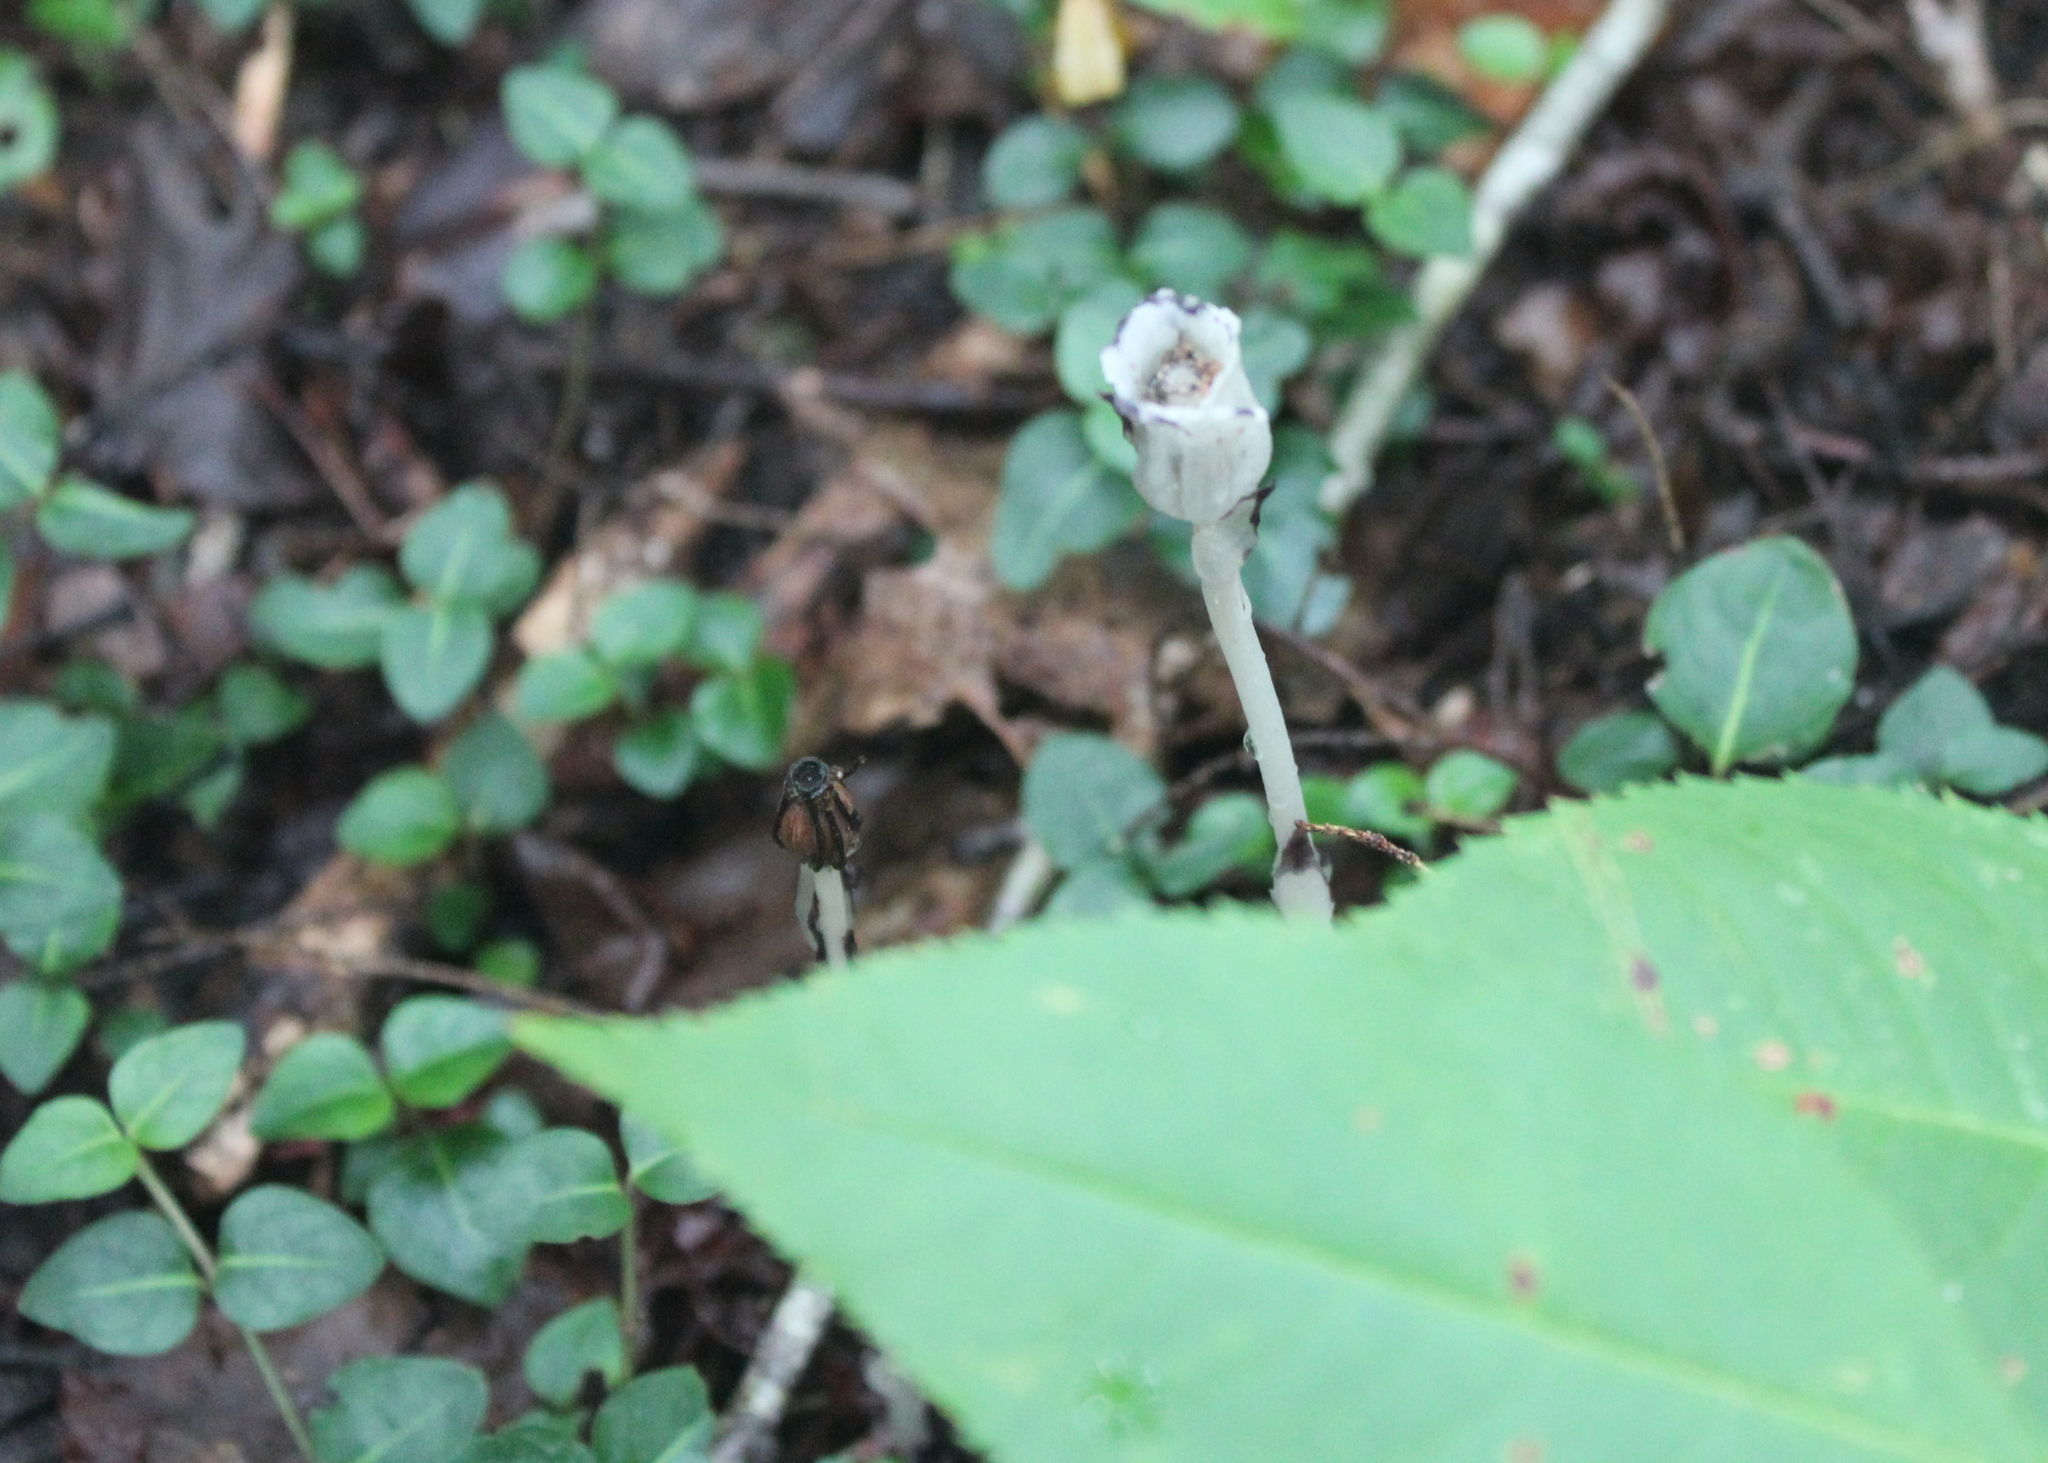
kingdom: Plantae
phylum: Tracheophyta
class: Magnoliopsida
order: Ericales
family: Ericaceae
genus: Monotropa
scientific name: Monotropa uniflora
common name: Convulsion root
